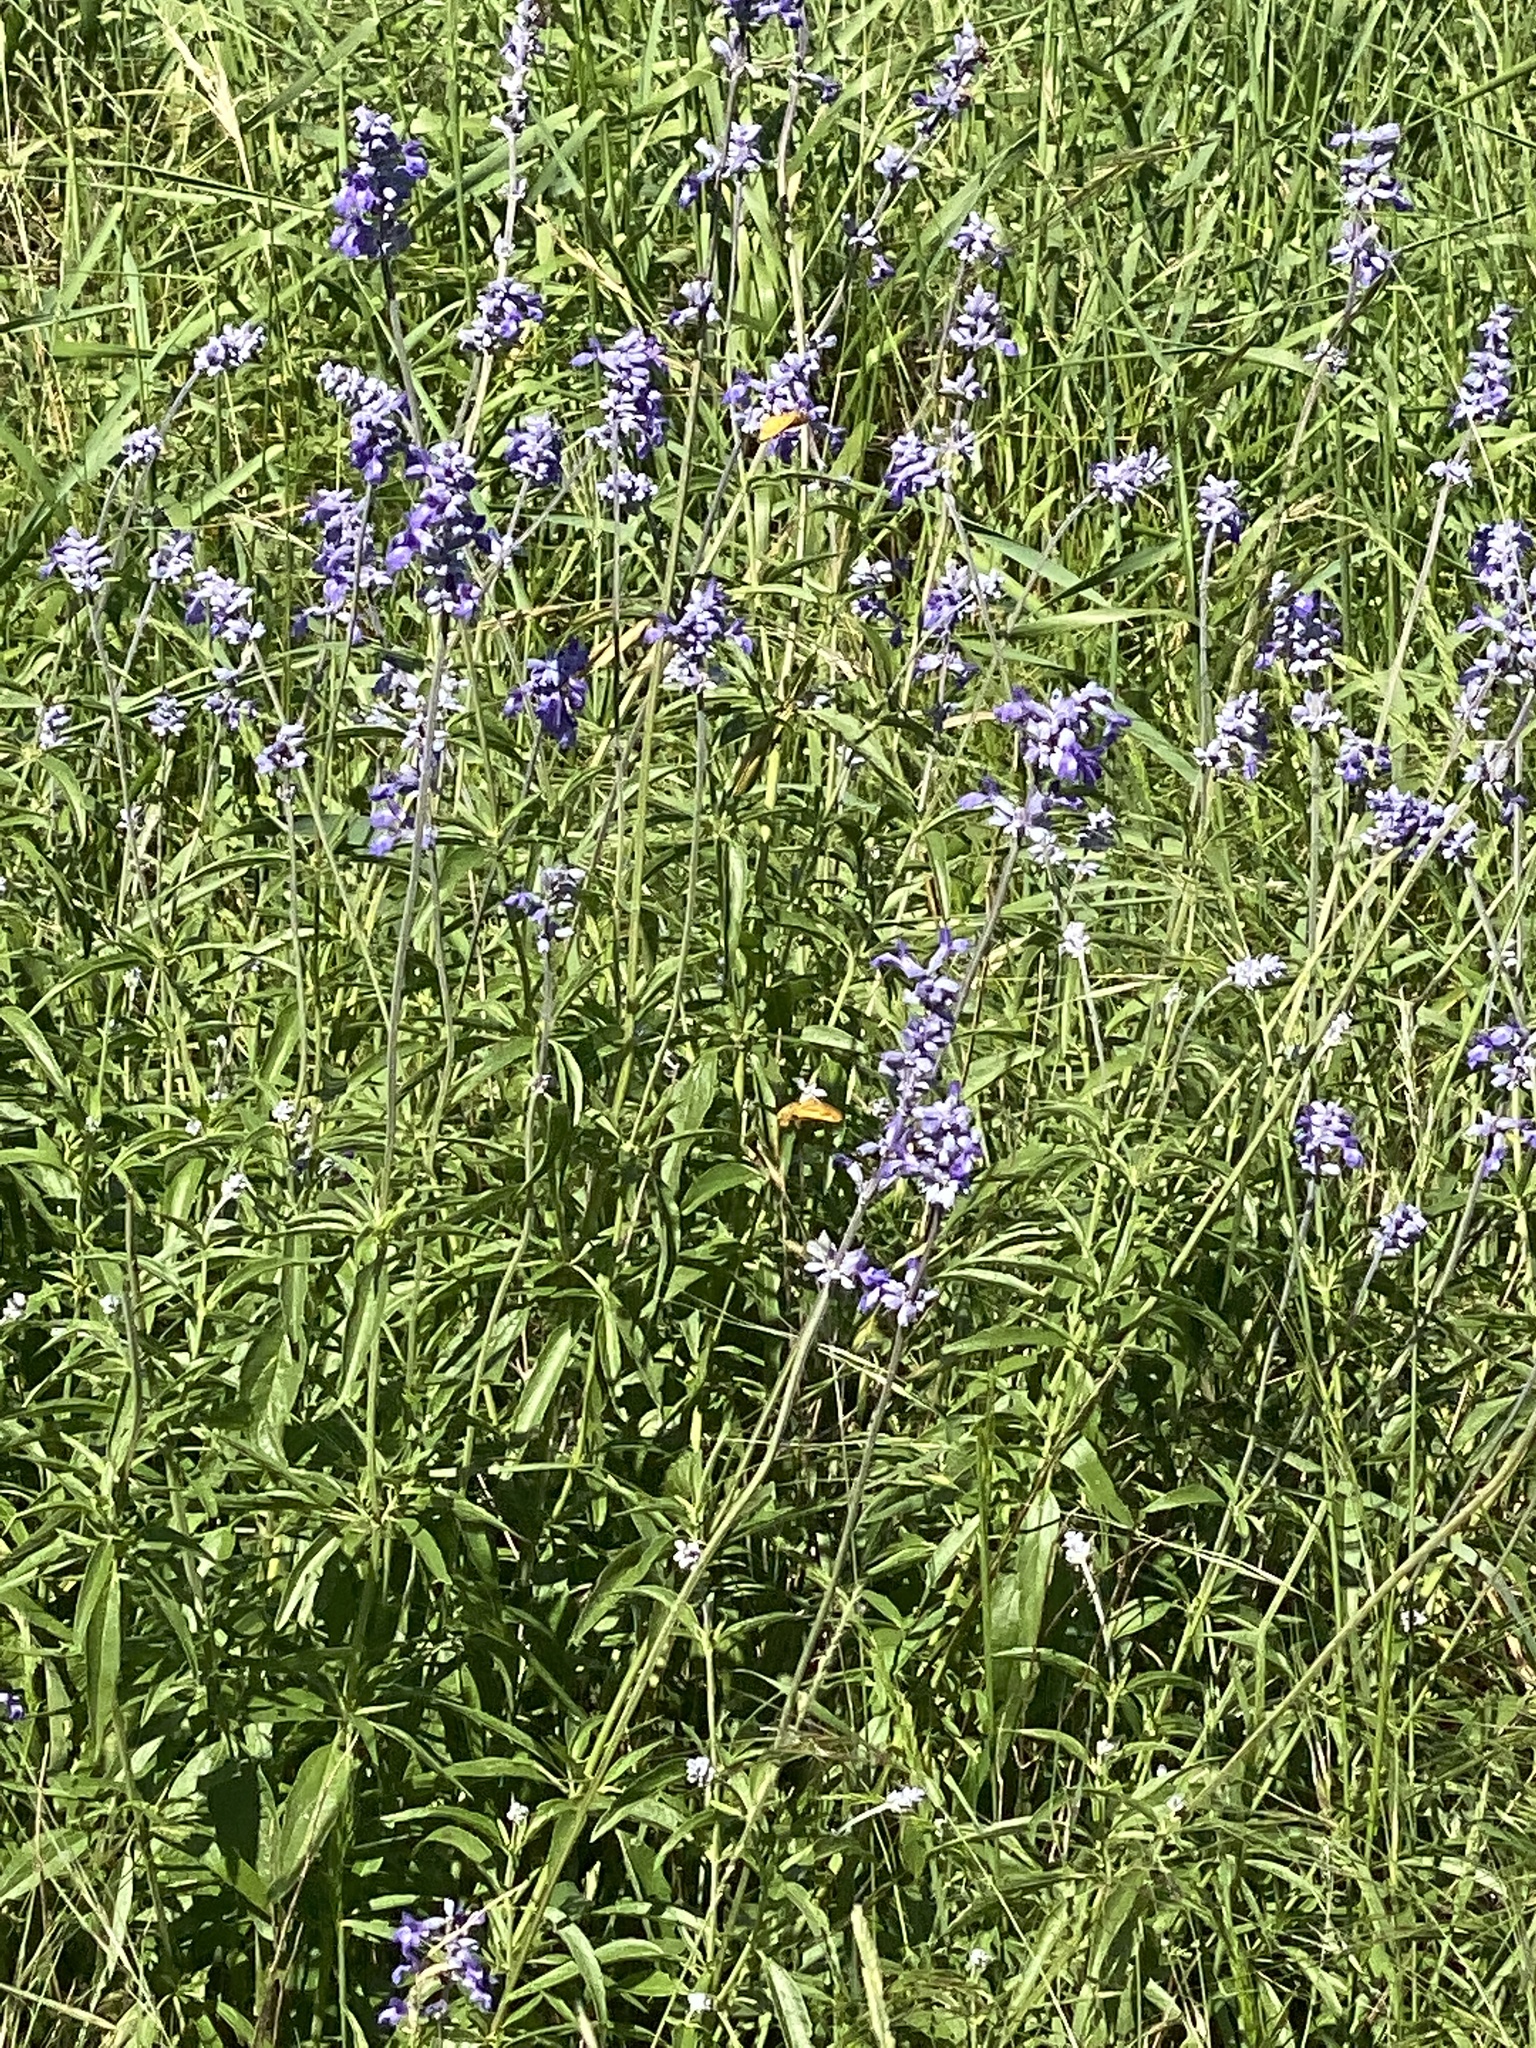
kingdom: Plantae
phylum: Tracheophyta
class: Magnoliopsida
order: Lamiales
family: Lamiaceae
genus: Salvia
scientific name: Salvia farinacea
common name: Mealy sage
